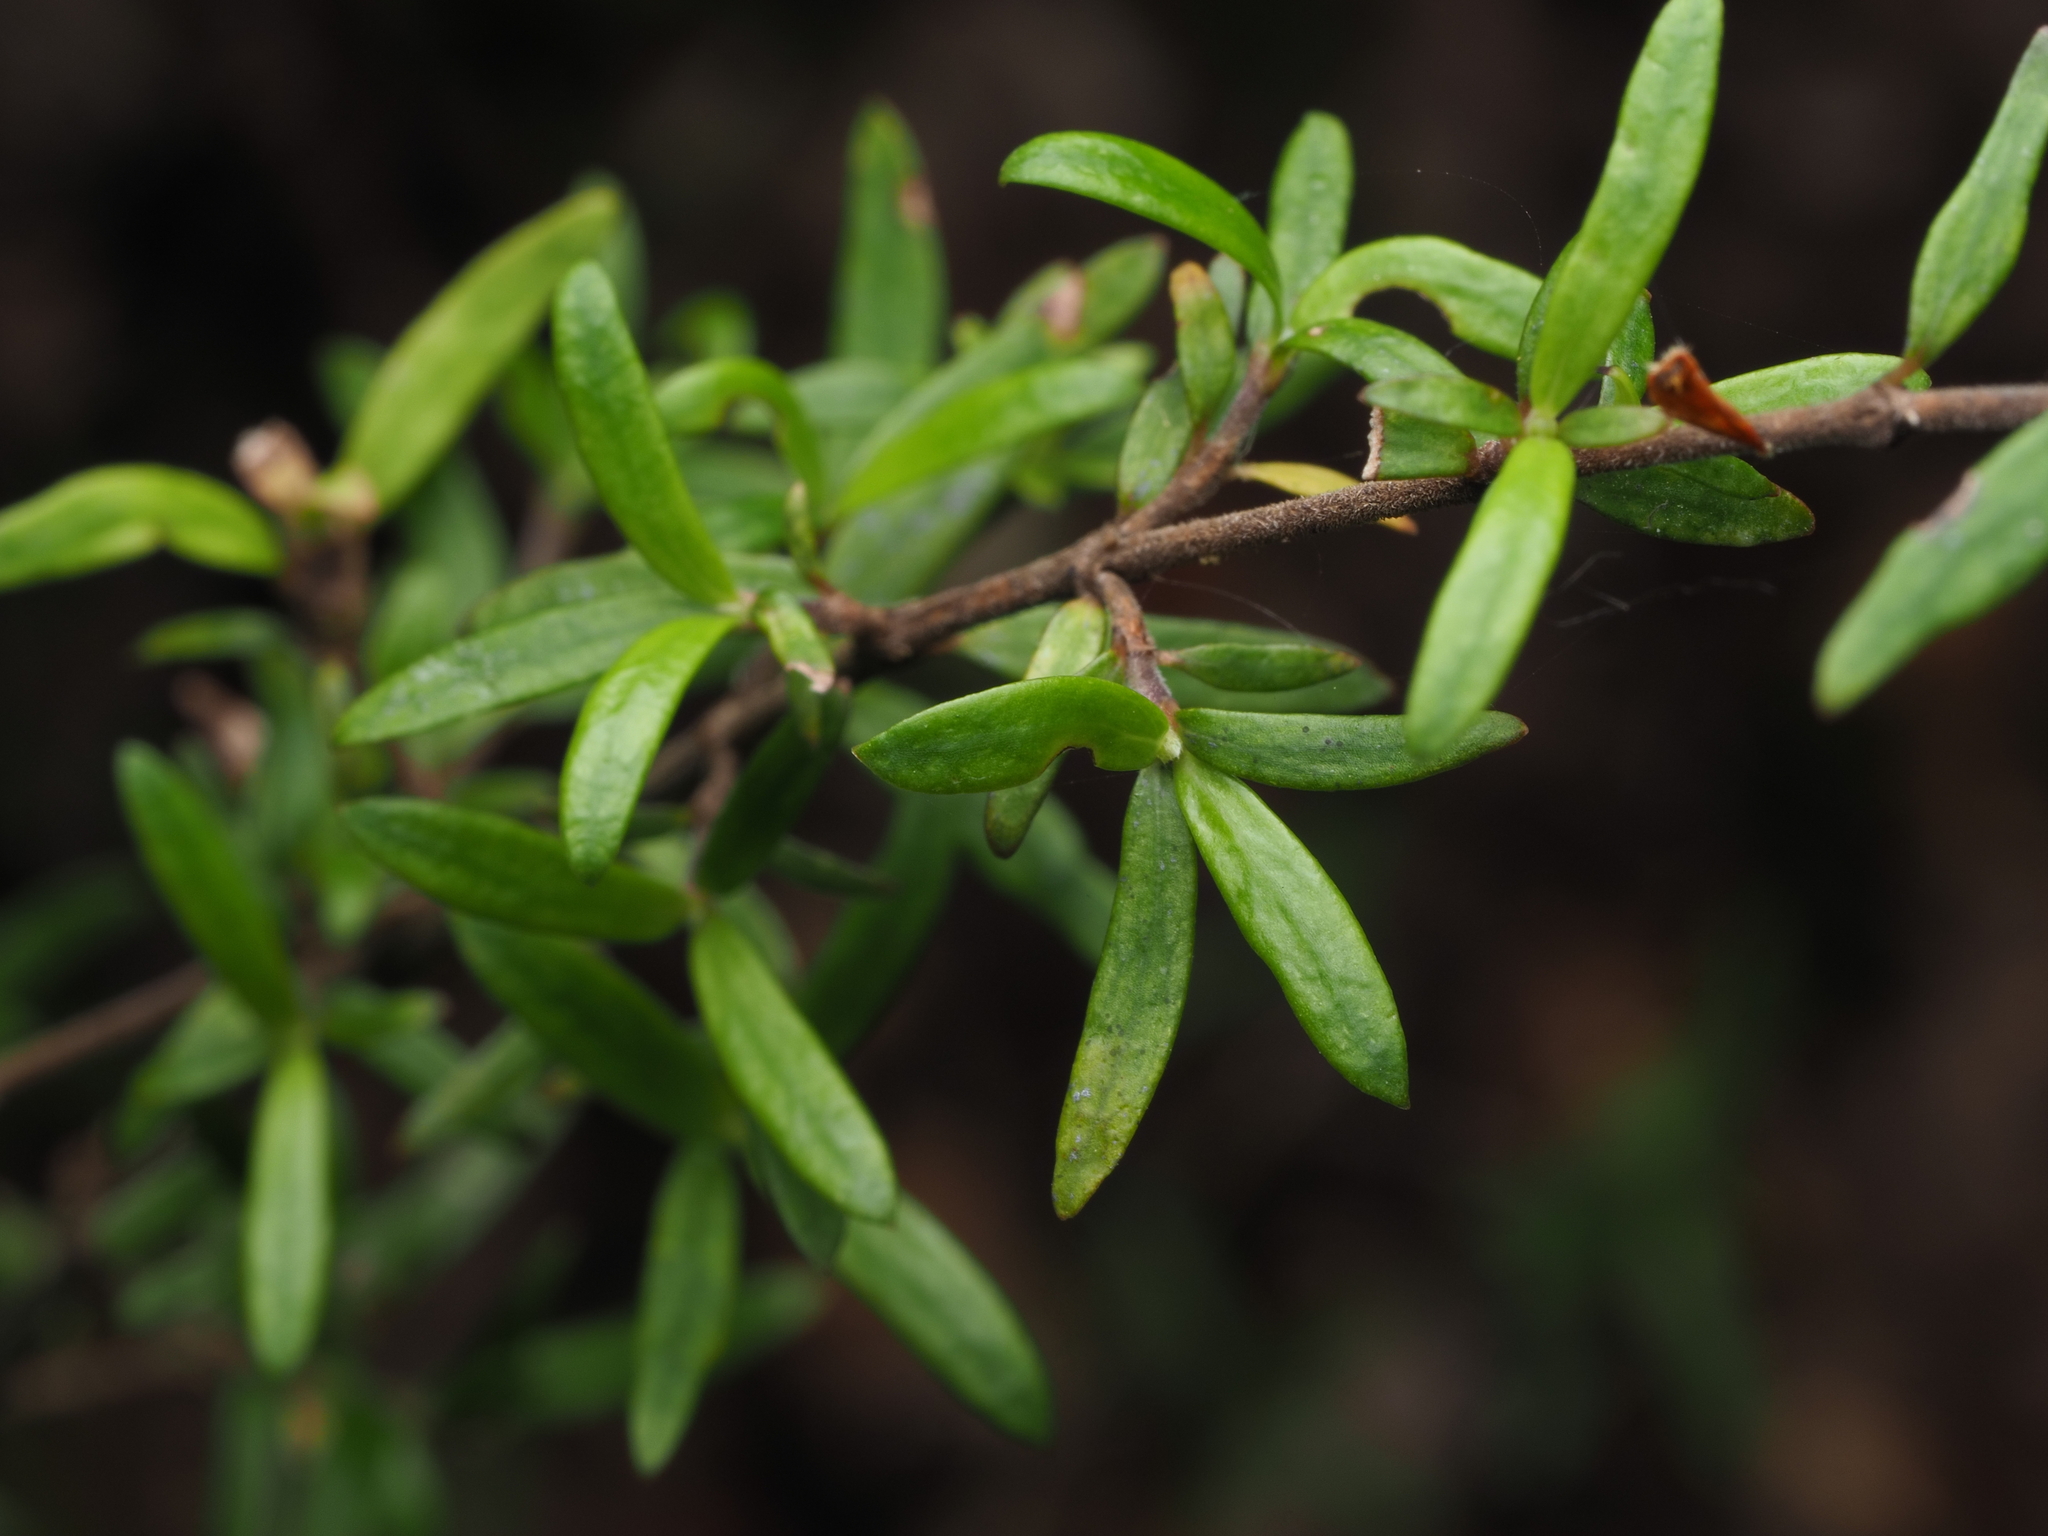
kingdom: Plantae
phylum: Tracheophyta
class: Magnoliopsida
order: Gentianales
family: Rubiaceae
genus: Coprosma
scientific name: Coprosma microcarpa
